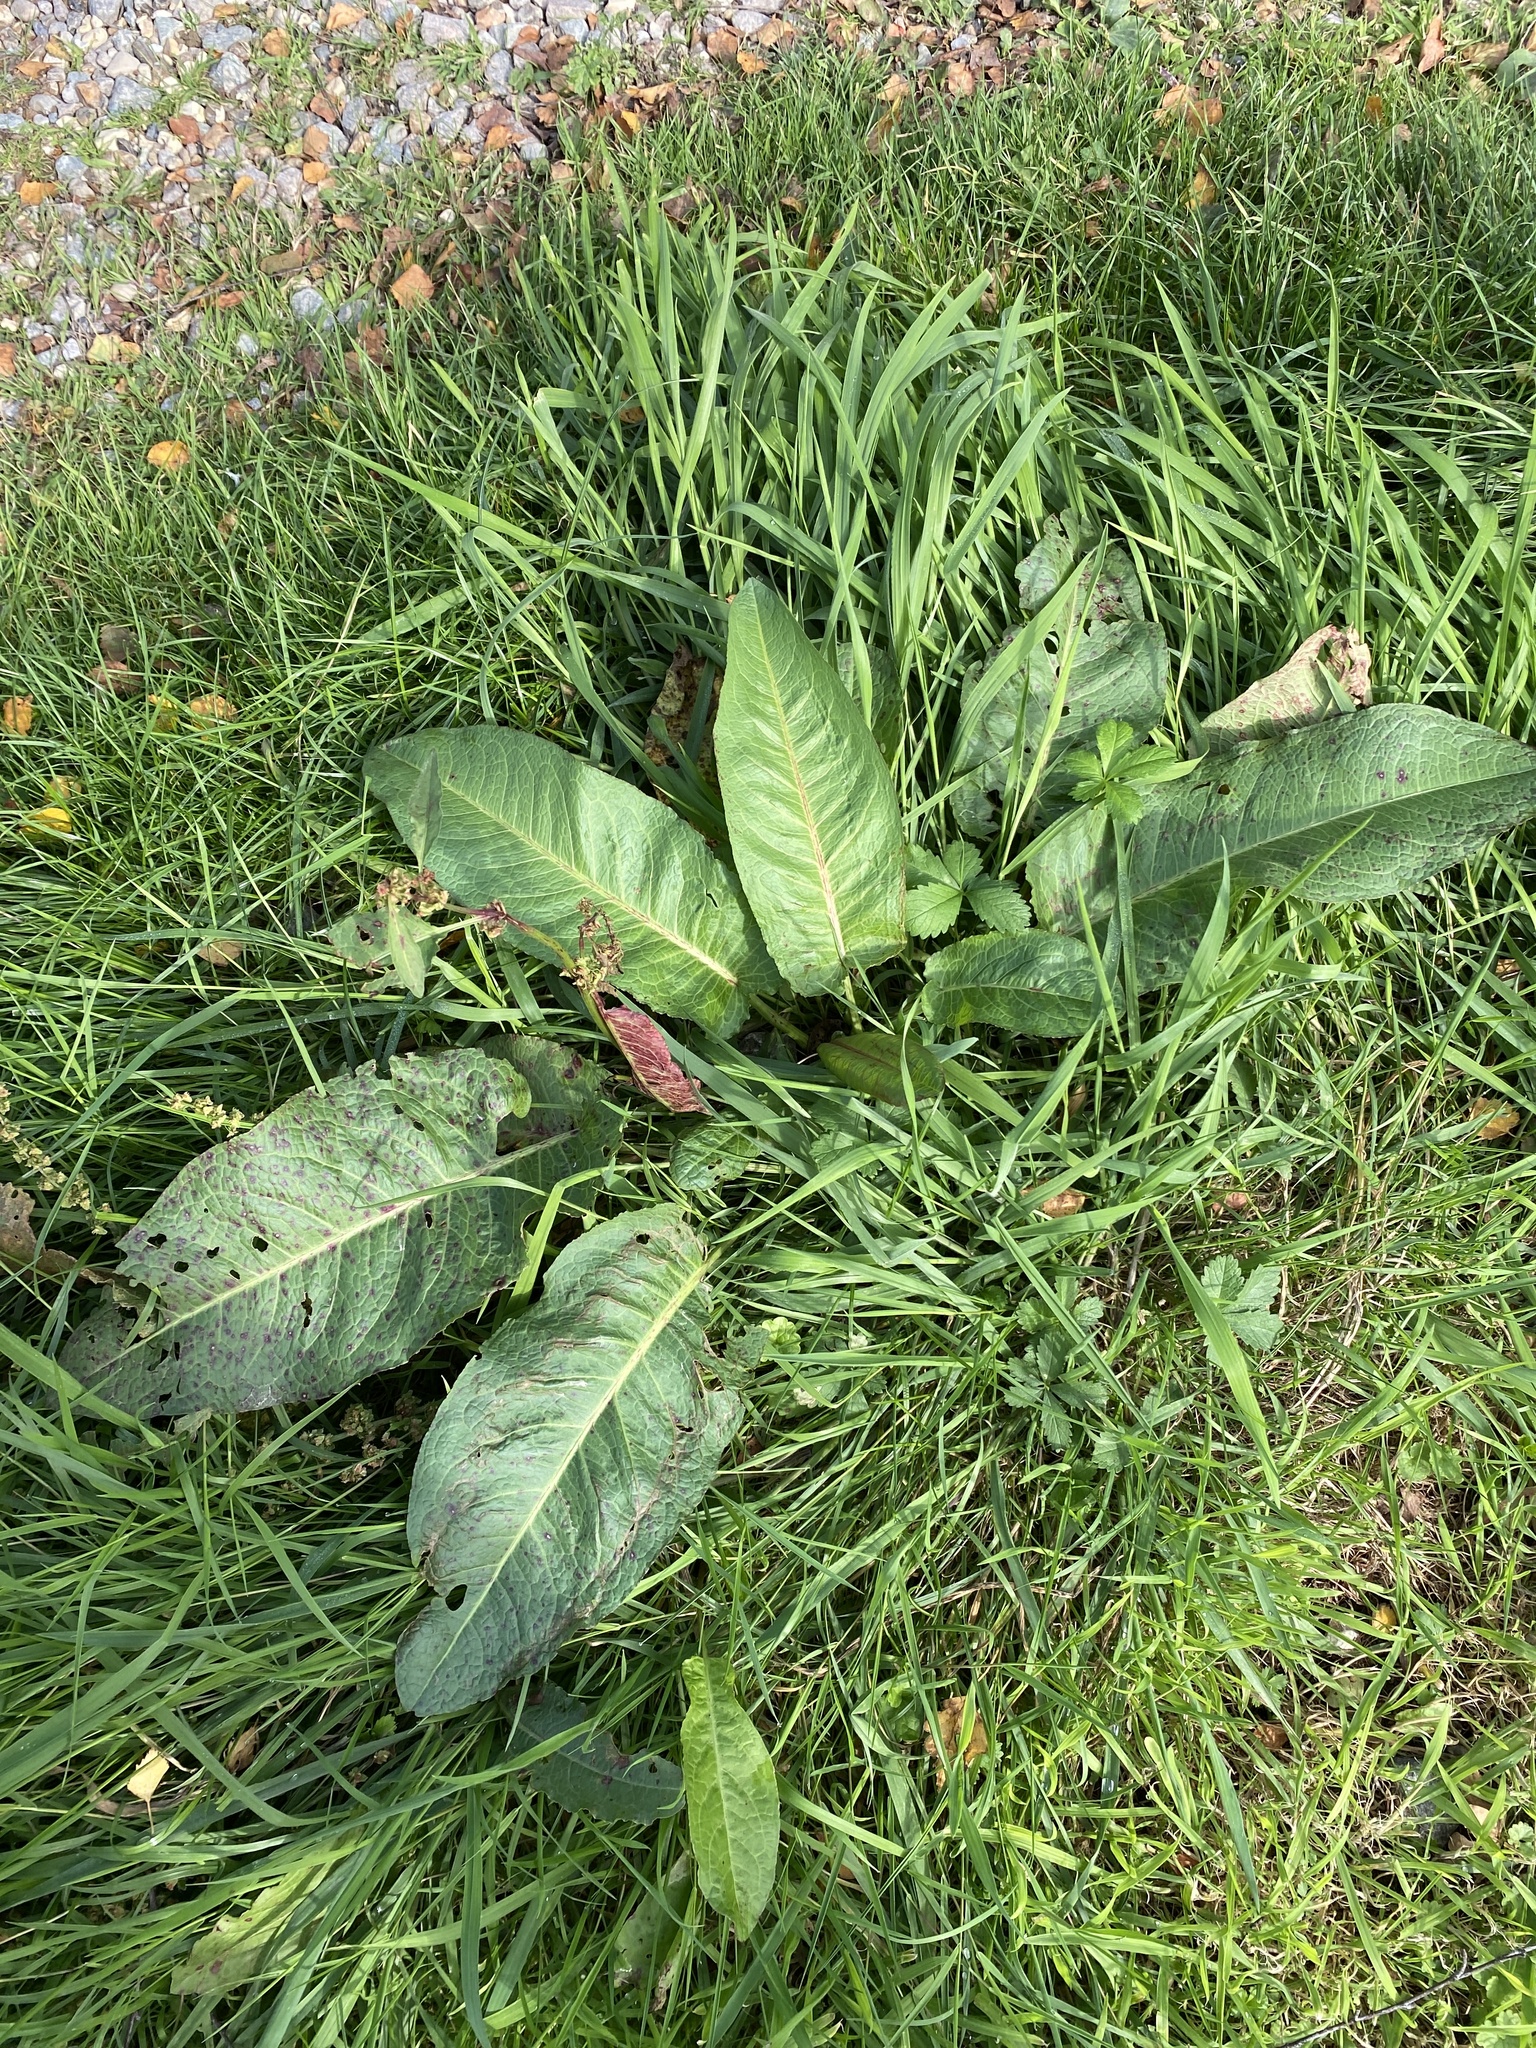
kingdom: Plantae
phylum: Tracheophyta
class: Magnoliopsida
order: Caryophyllales
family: Polygonaceae
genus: Rumex
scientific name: Rumex obtusifolius
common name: Bitter dock
